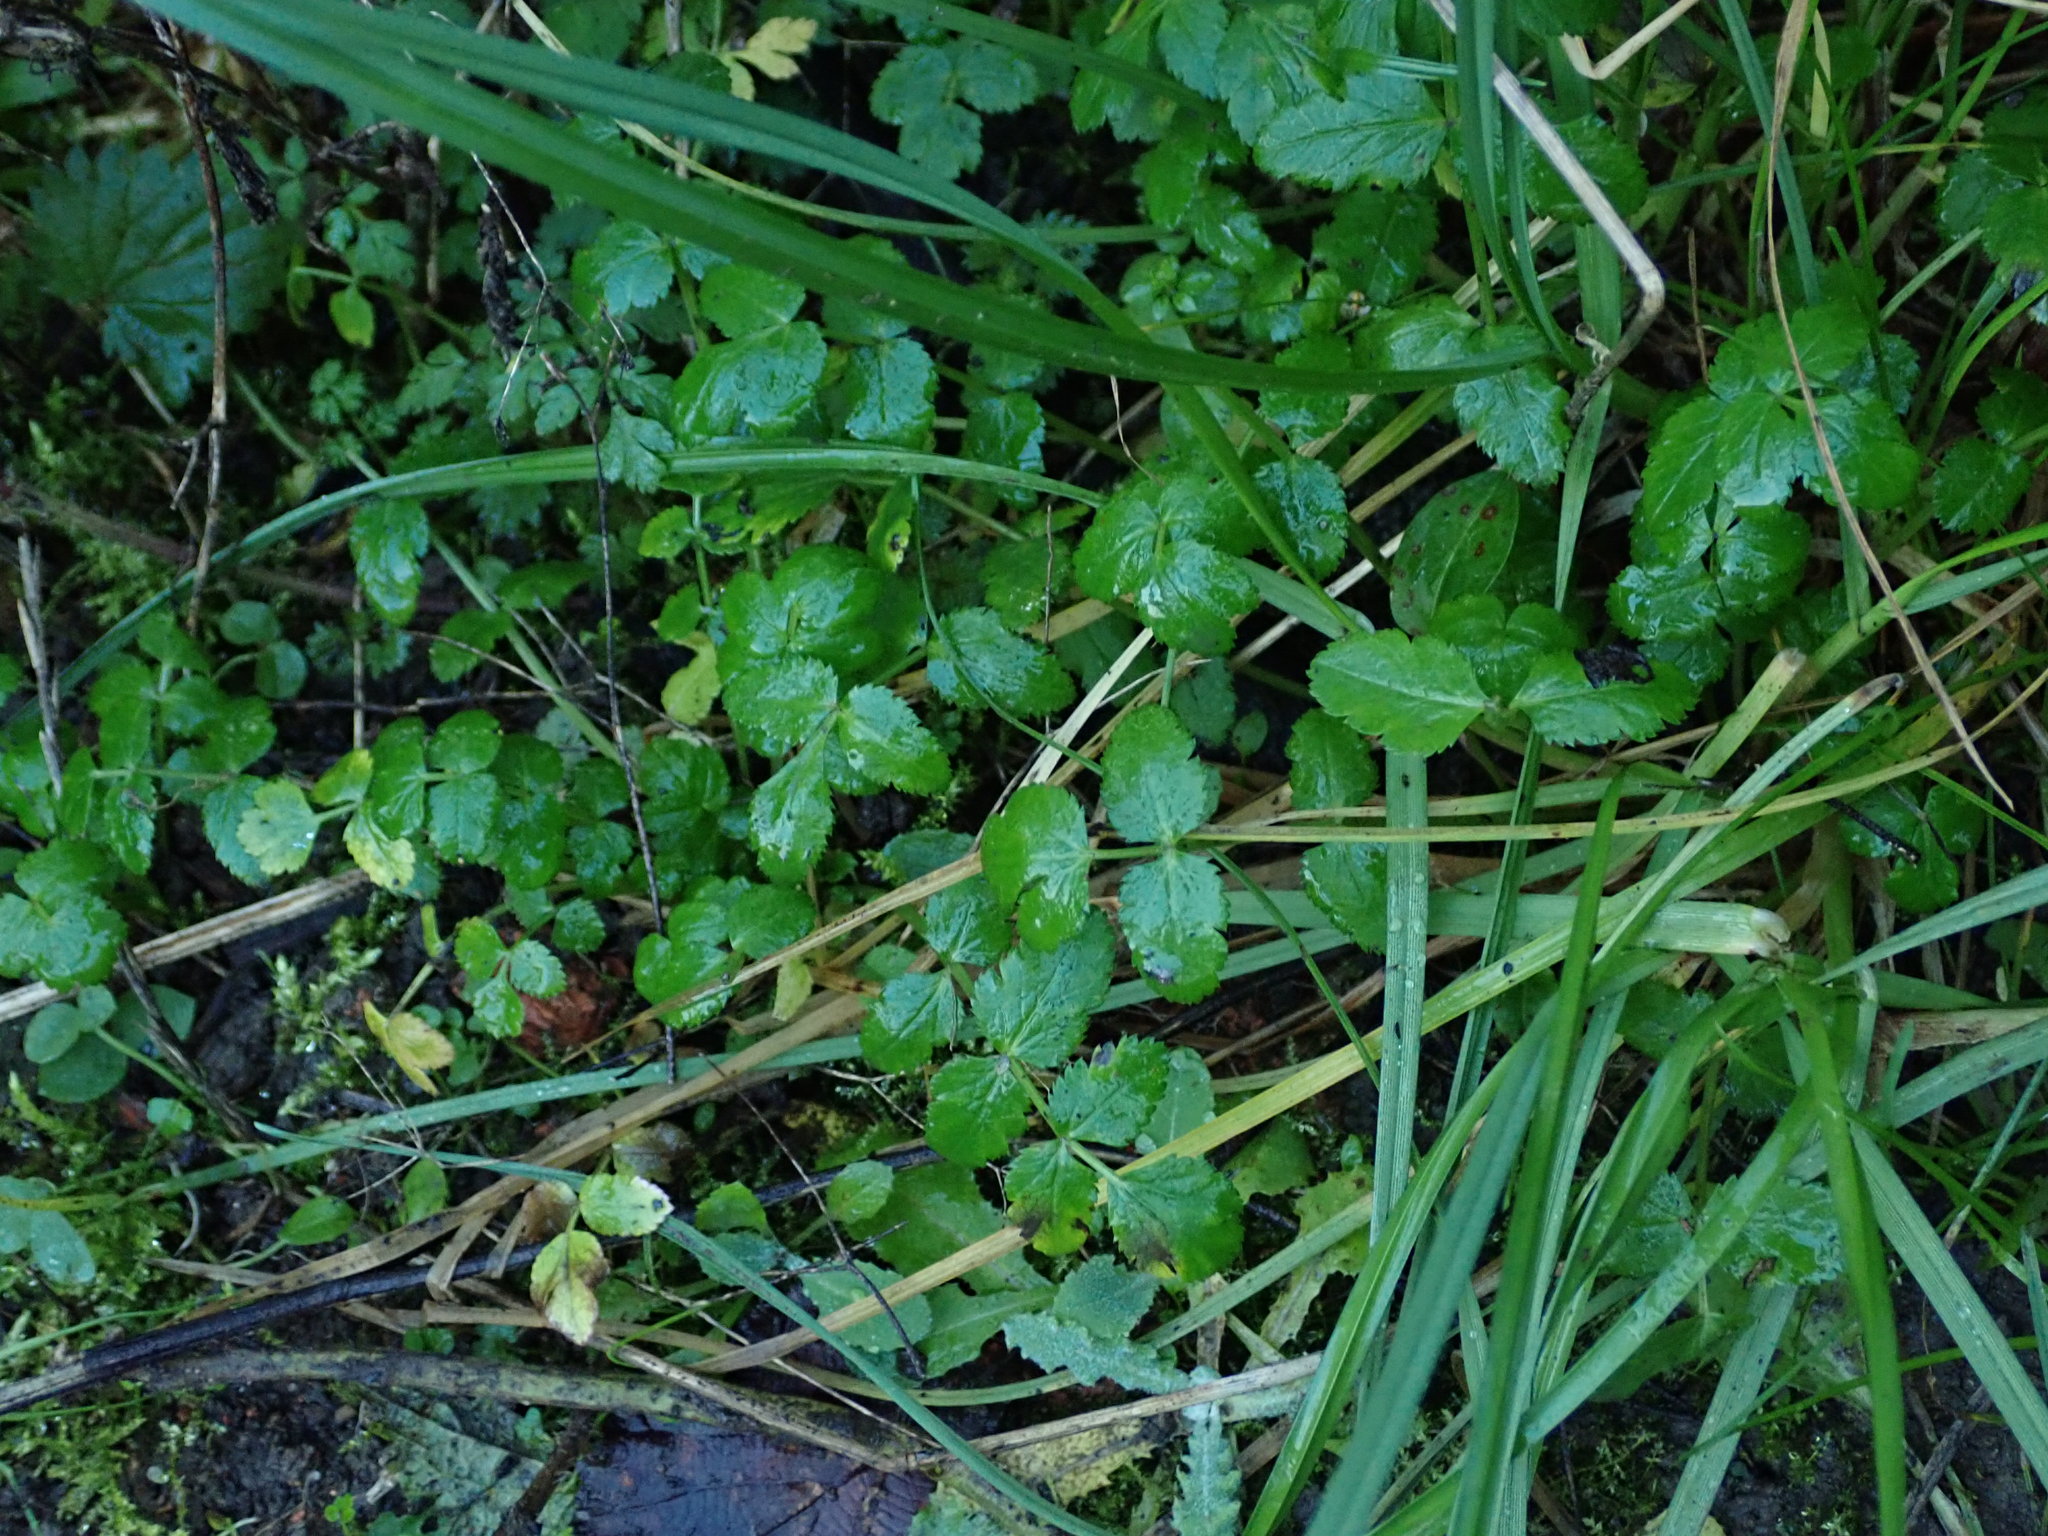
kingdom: Plantae
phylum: Tracheophyta
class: Magnoliopsida
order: Apiales
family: Apiaceae
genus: Sison
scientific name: Sison amomum
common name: Stone-parsley
